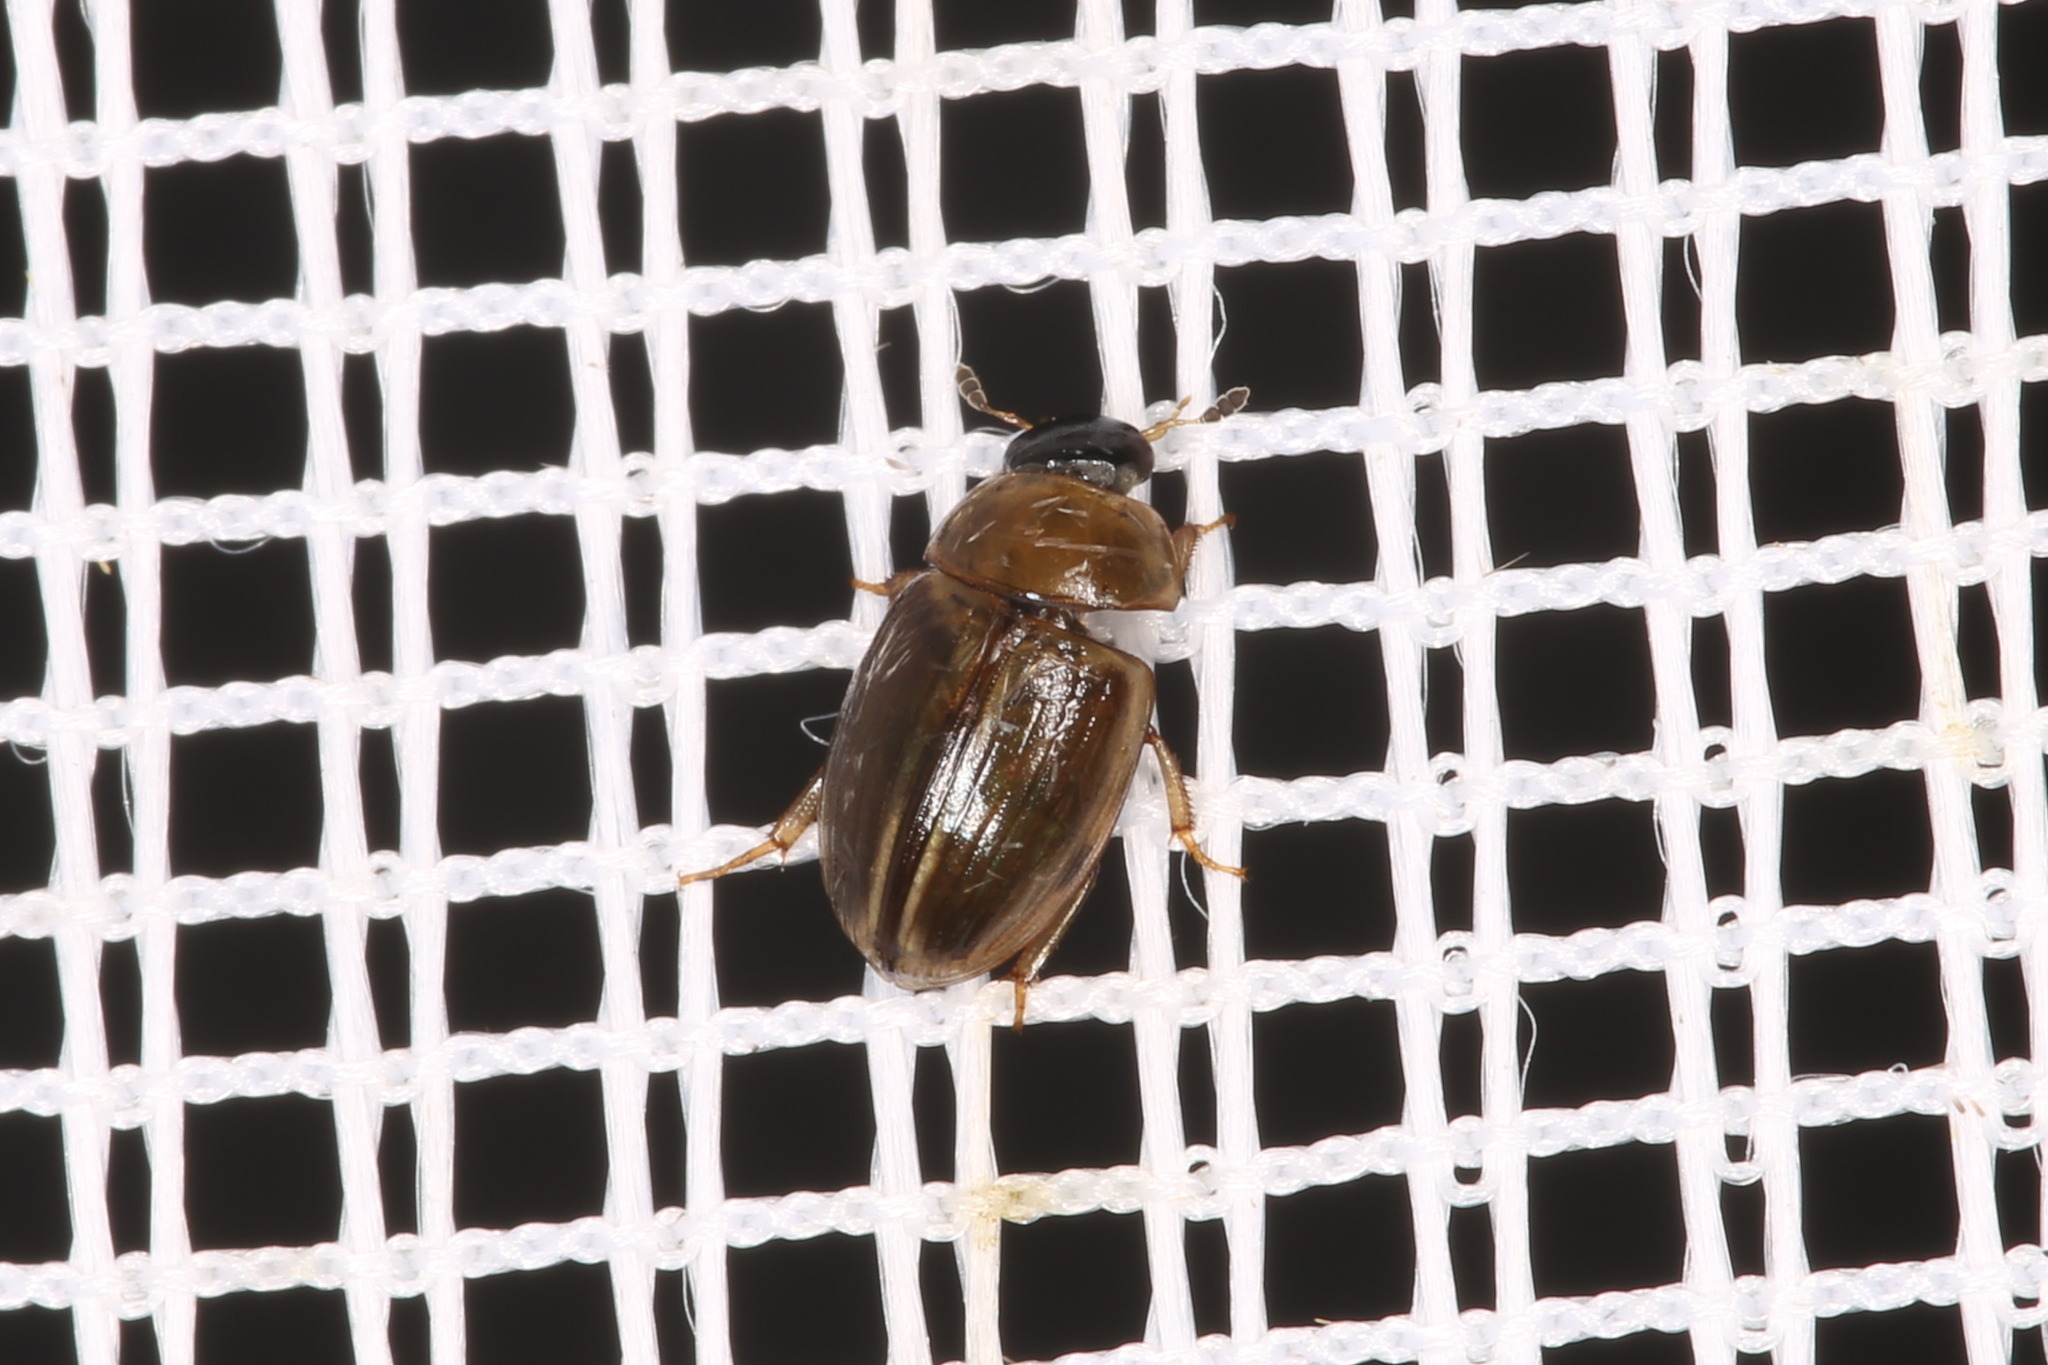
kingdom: Animalia
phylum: Arthropoda
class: Insecta
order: Coleoptera
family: Hydrophilidae
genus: Cercyon
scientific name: Cercyon laminatus
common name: Water scavenger beetle
